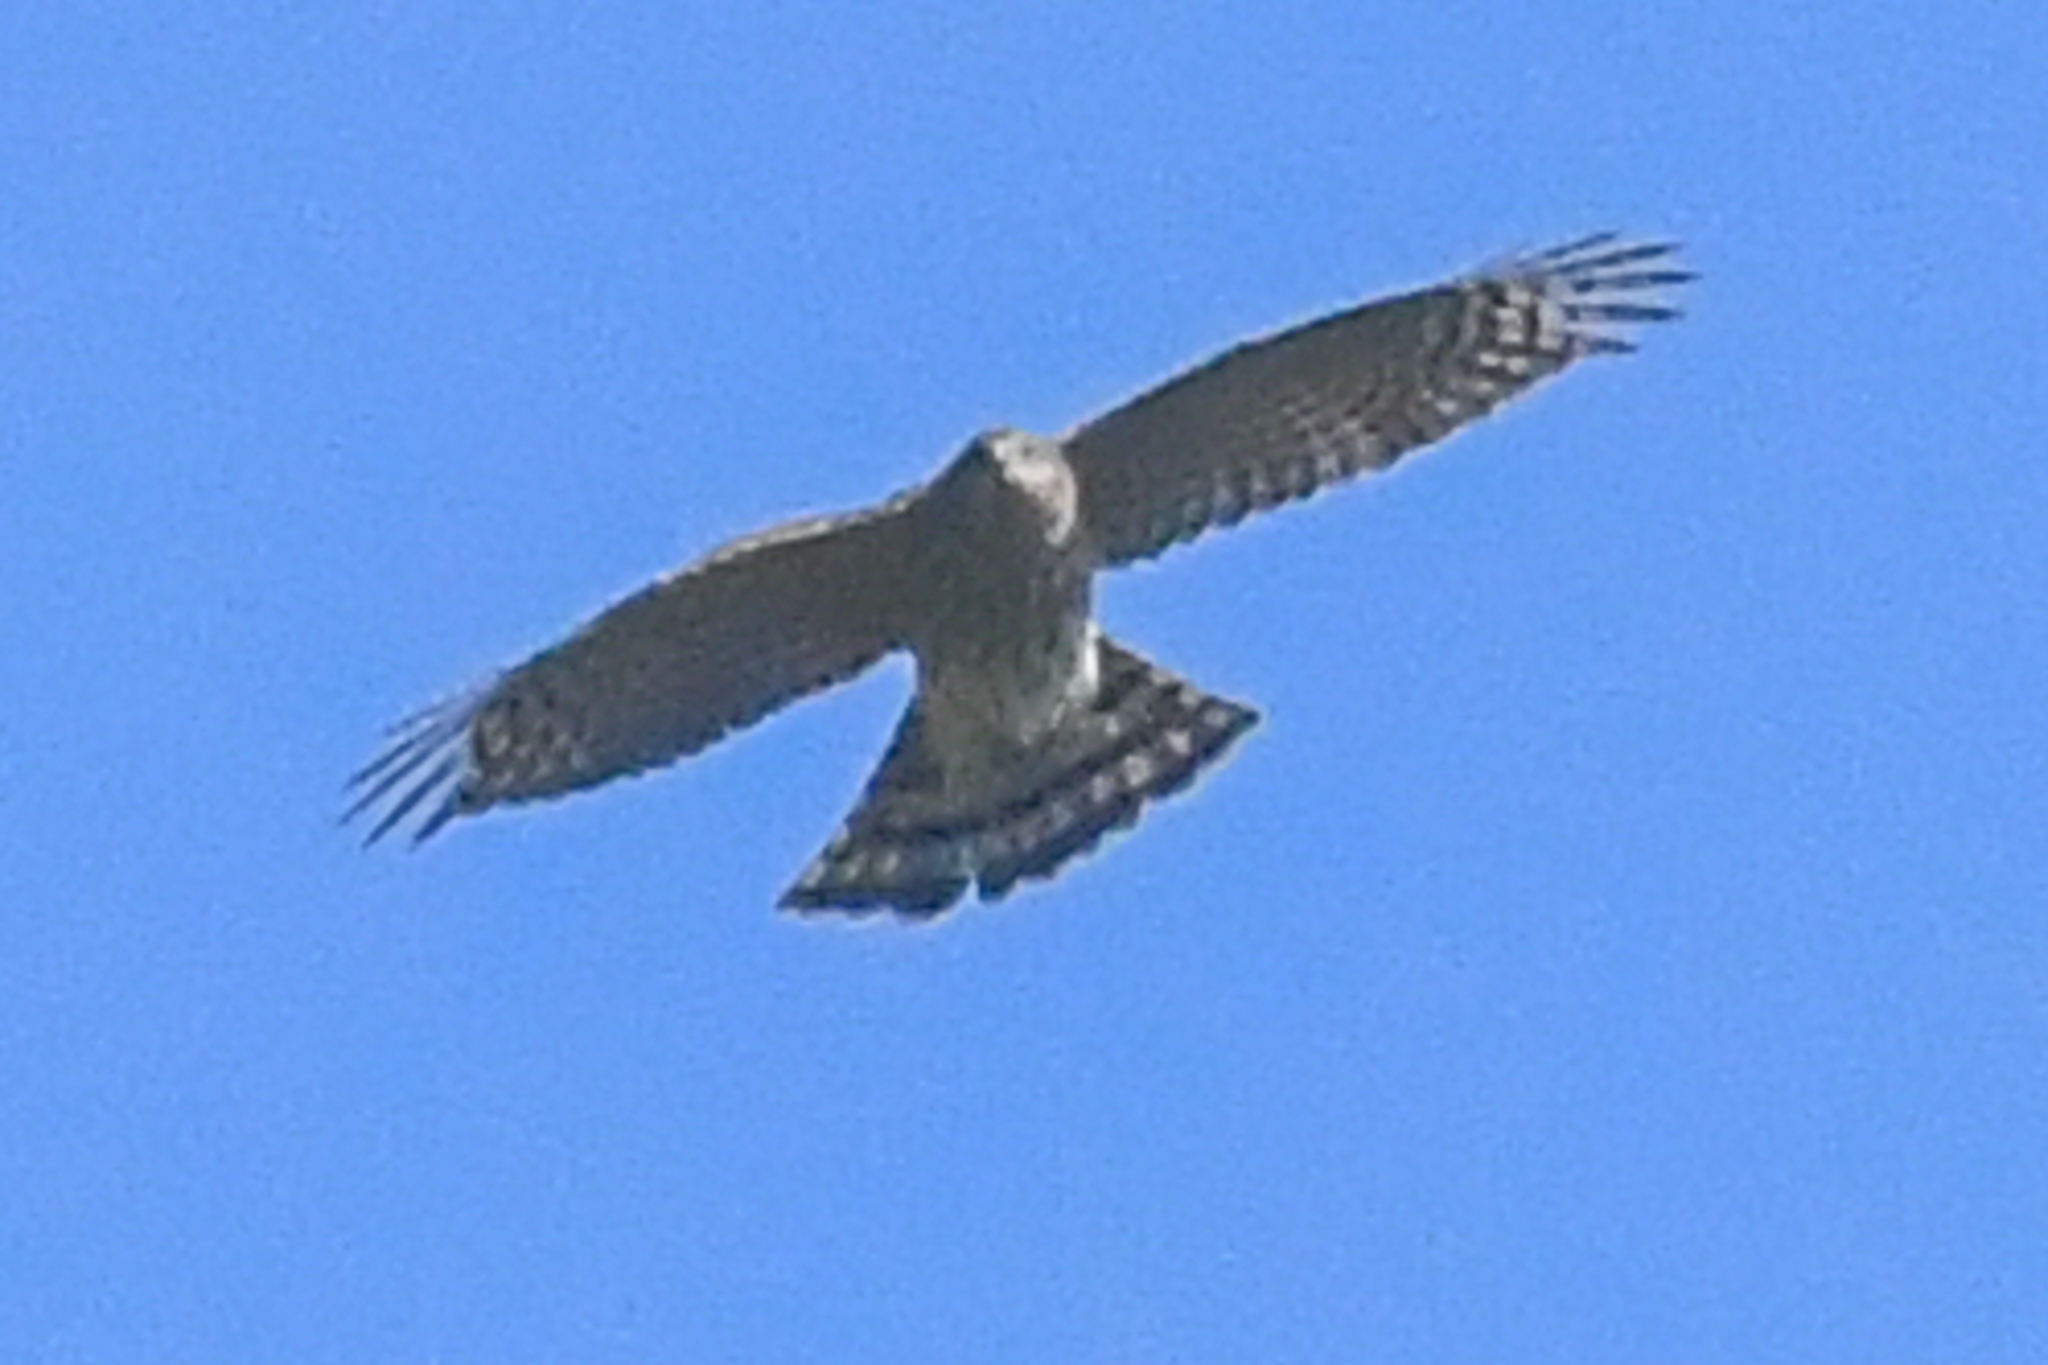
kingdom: Animalia
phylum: Chordata
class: Aves
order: Accipitriformes
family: Accipitridae
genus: Accipiter
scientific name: Accipiter striatus
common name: Sharp-shinned hawk
